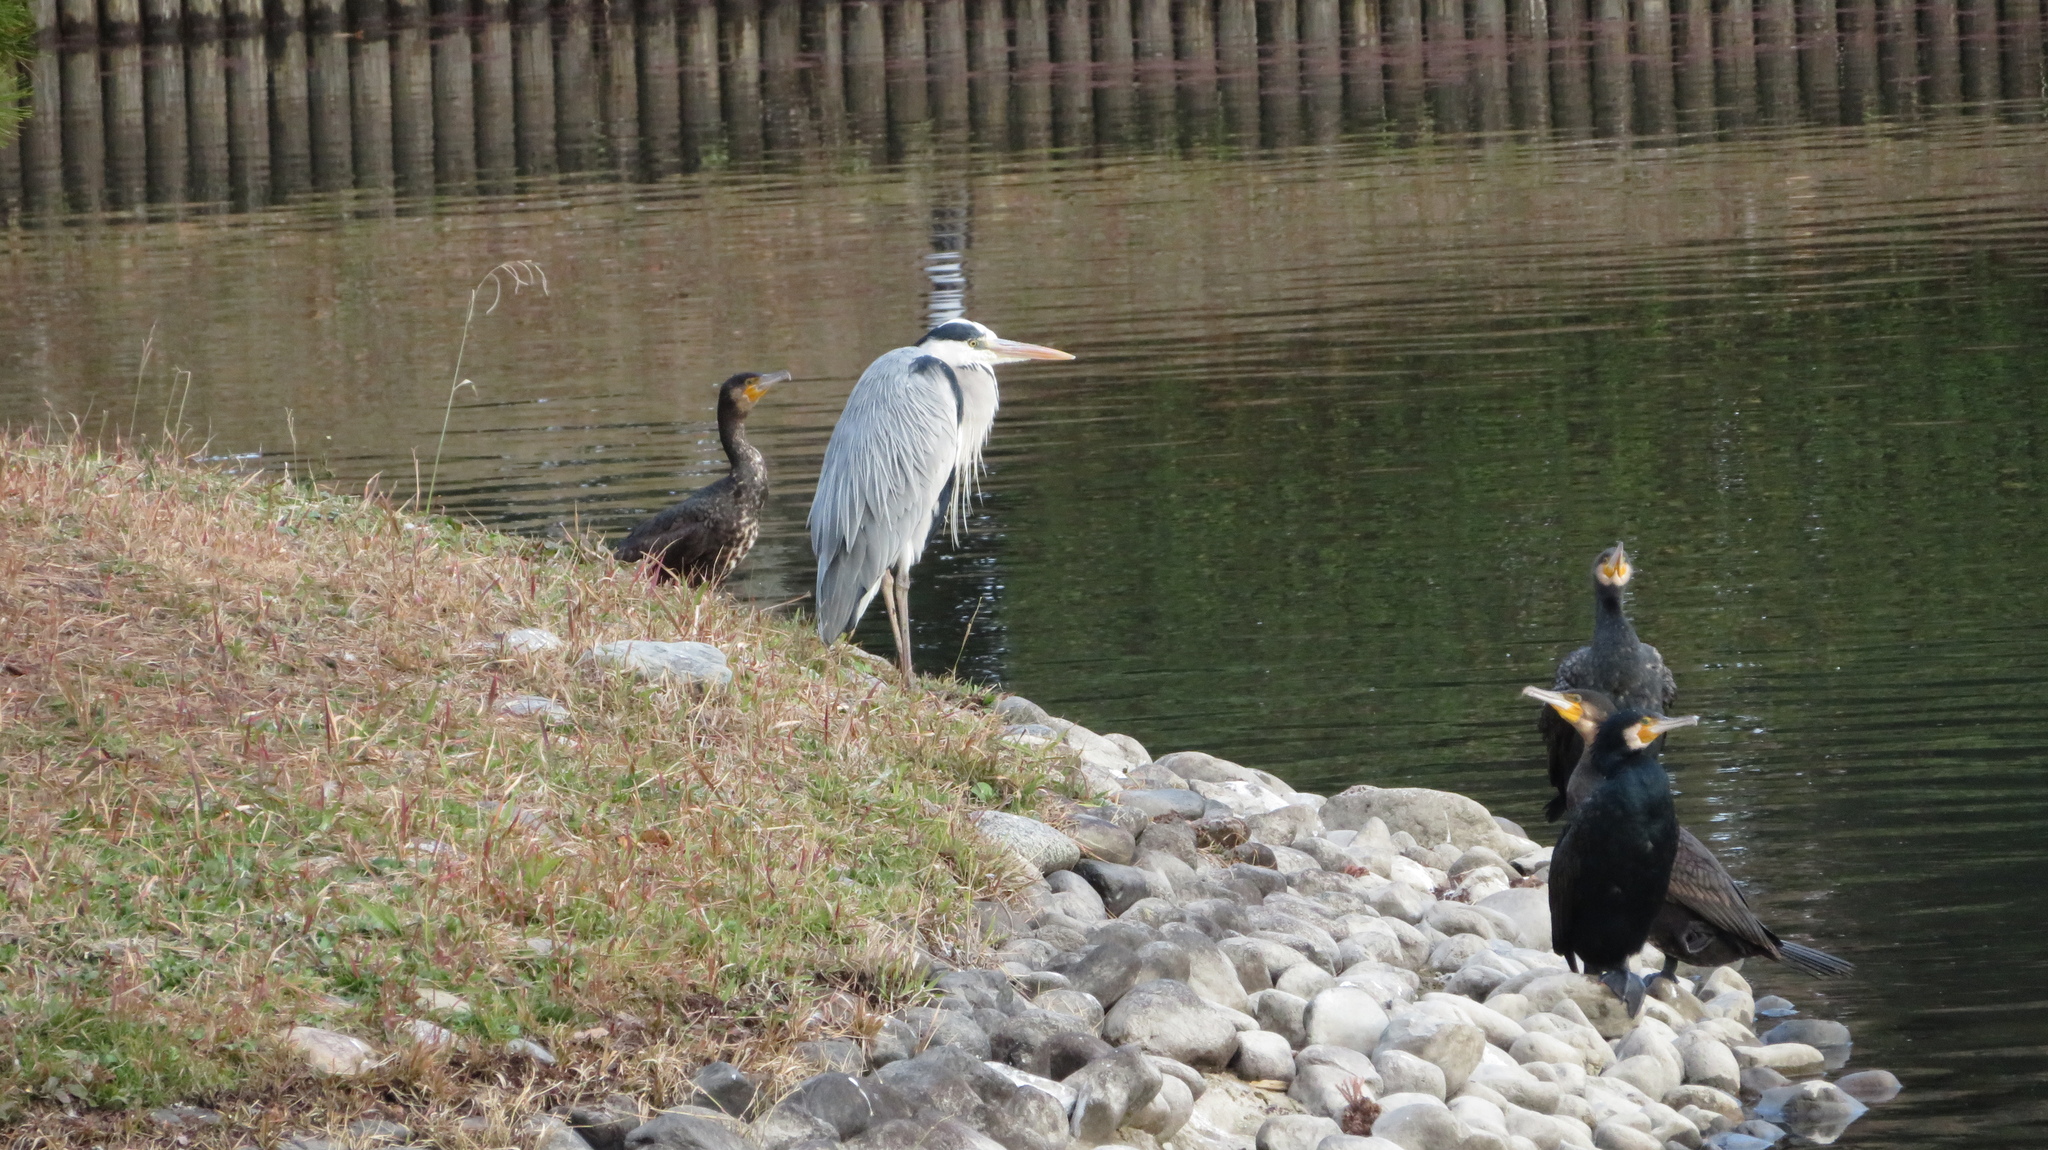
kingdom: Animalia
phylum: Chordata
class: Aves
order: Pelecaniformes
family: Ardeidae
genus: Ardea
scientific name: Ardea cinerea
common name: Grey heron
